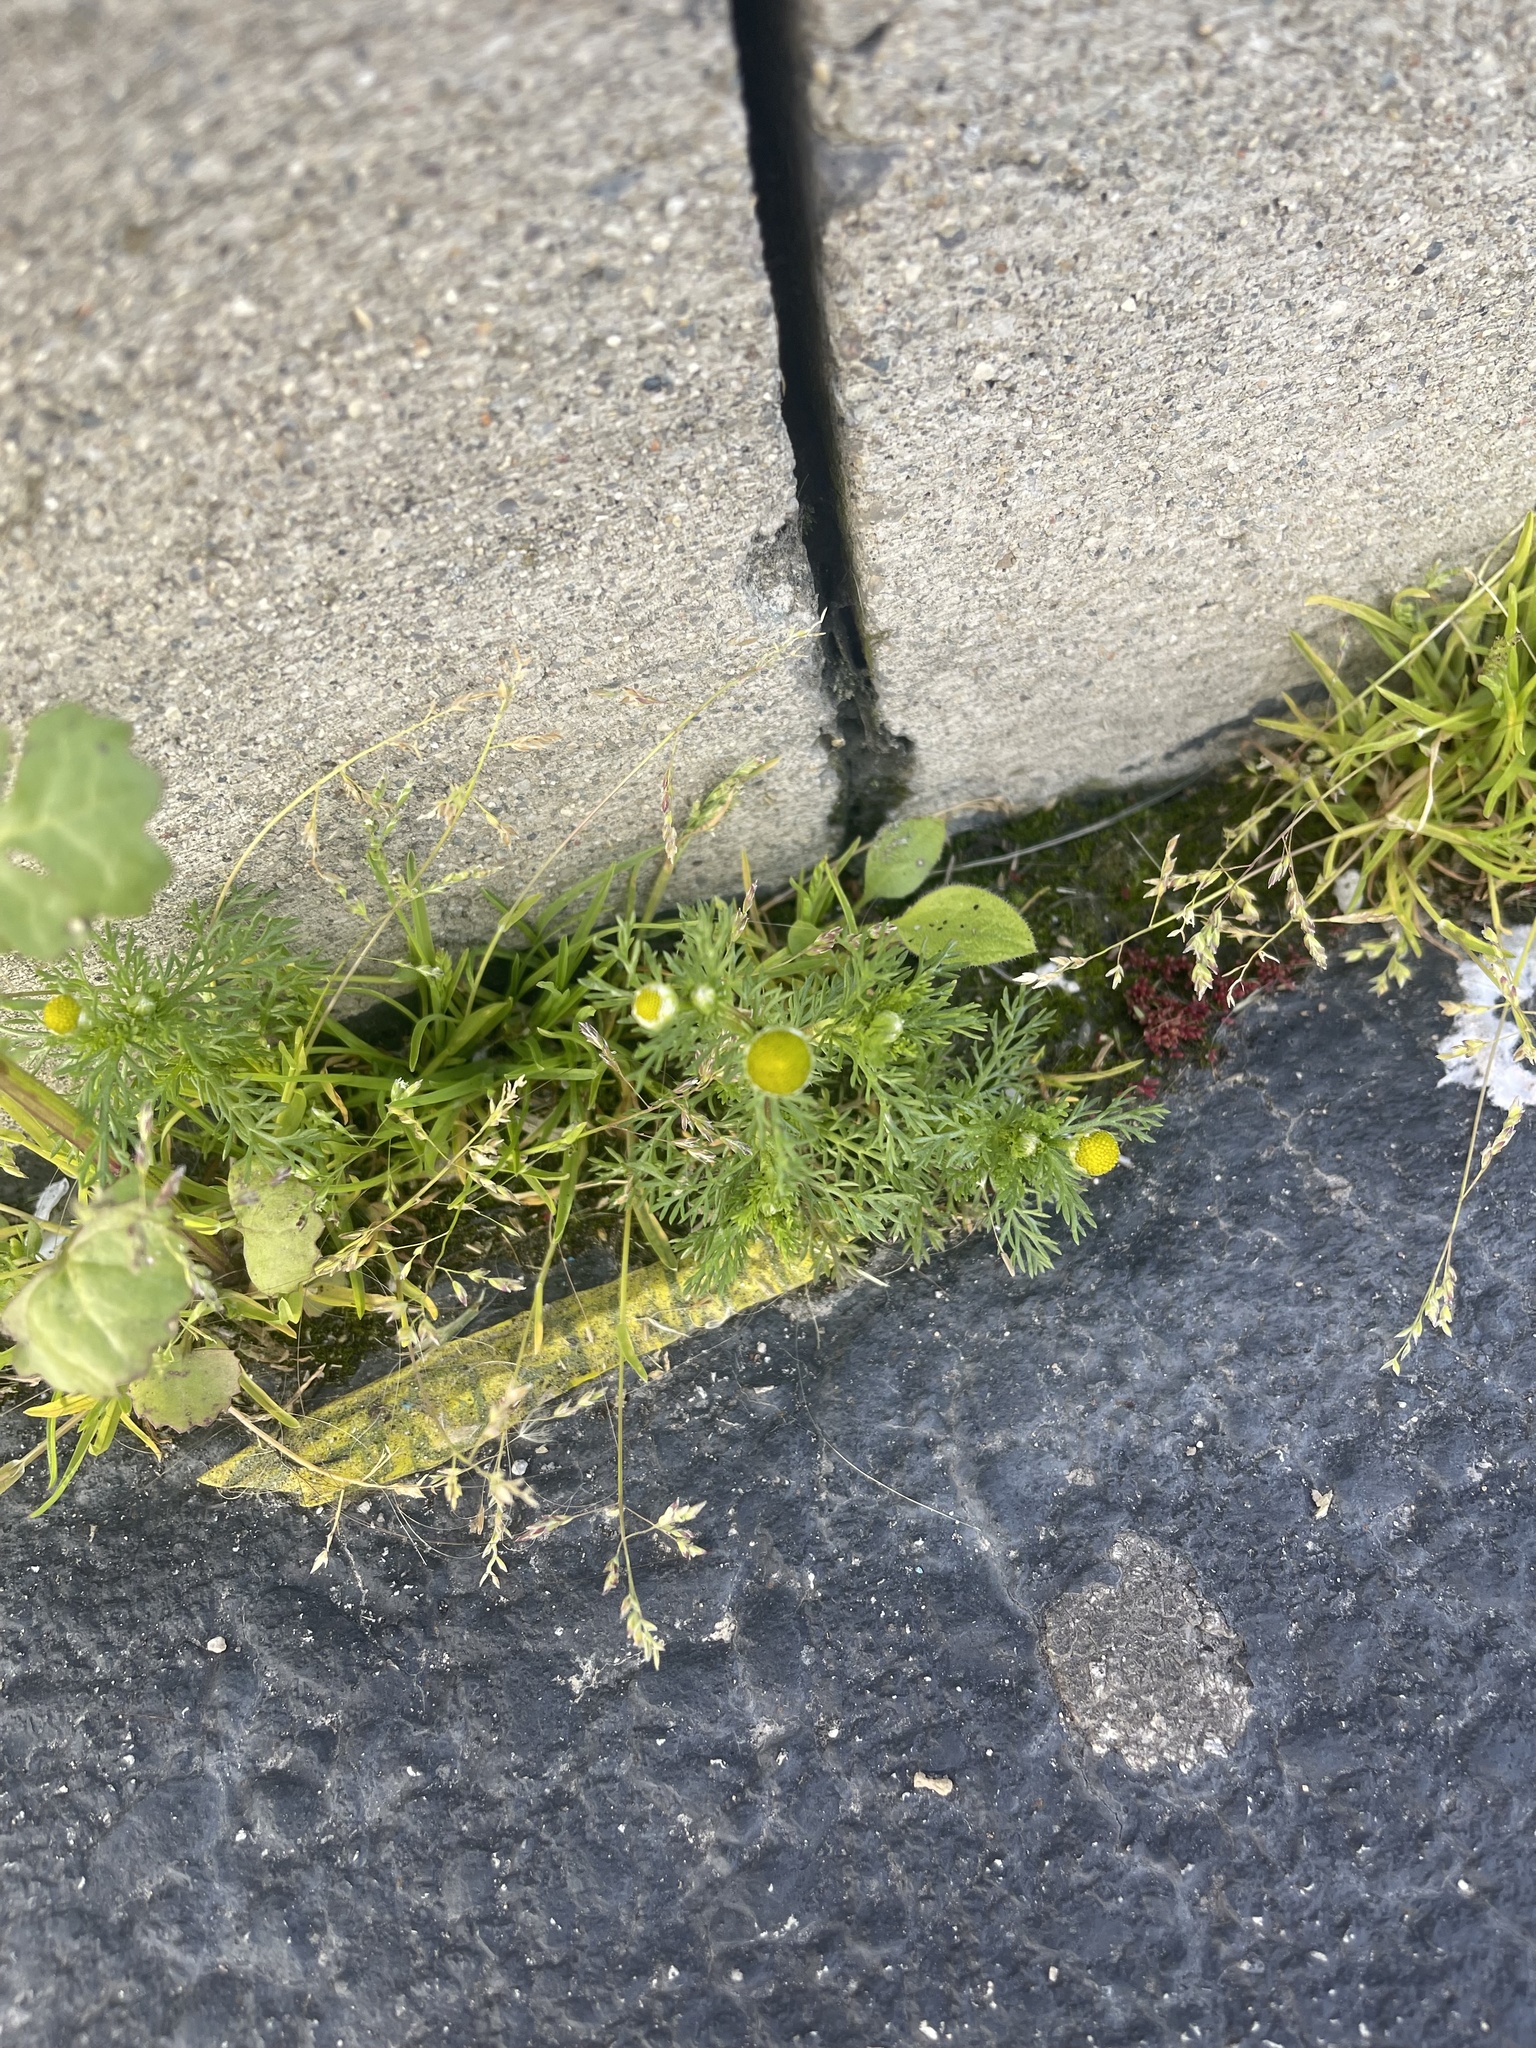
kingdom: Plantae
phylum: Tracheophyta
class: Magnoliopsida
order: Asterales
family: Asteraceae
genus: Matricaria
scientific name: Matricaria discoidea
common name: Disc mayweed
